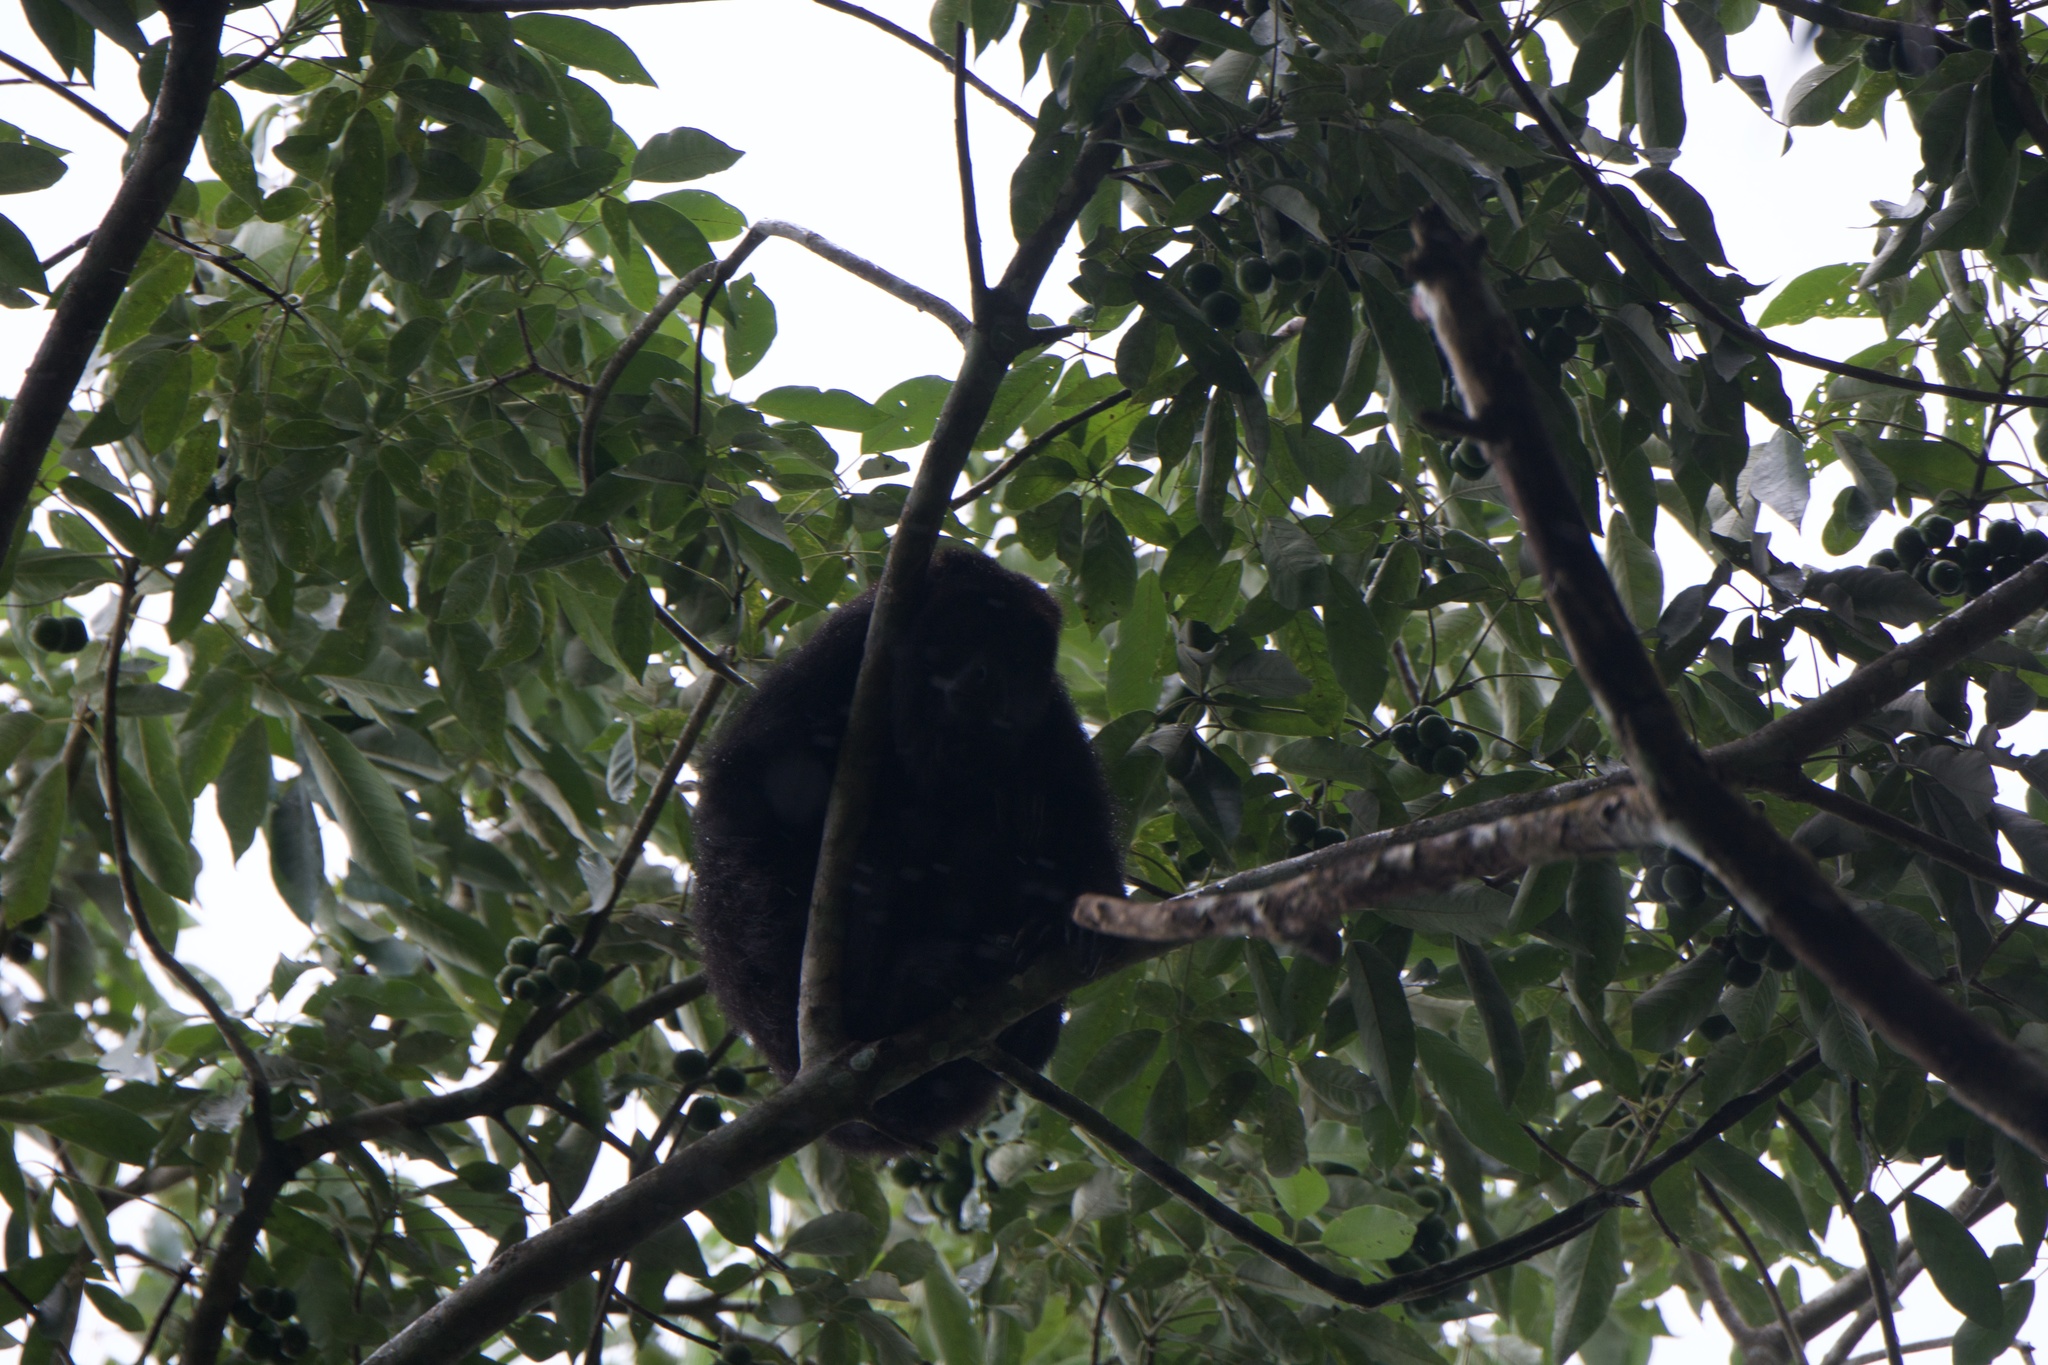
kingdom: Animalia
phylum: Chordata
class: Mammalia
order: Primates
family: Atelidae
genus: Alouatta
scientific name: Alouatta pigra
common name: Guatemalan black howler
